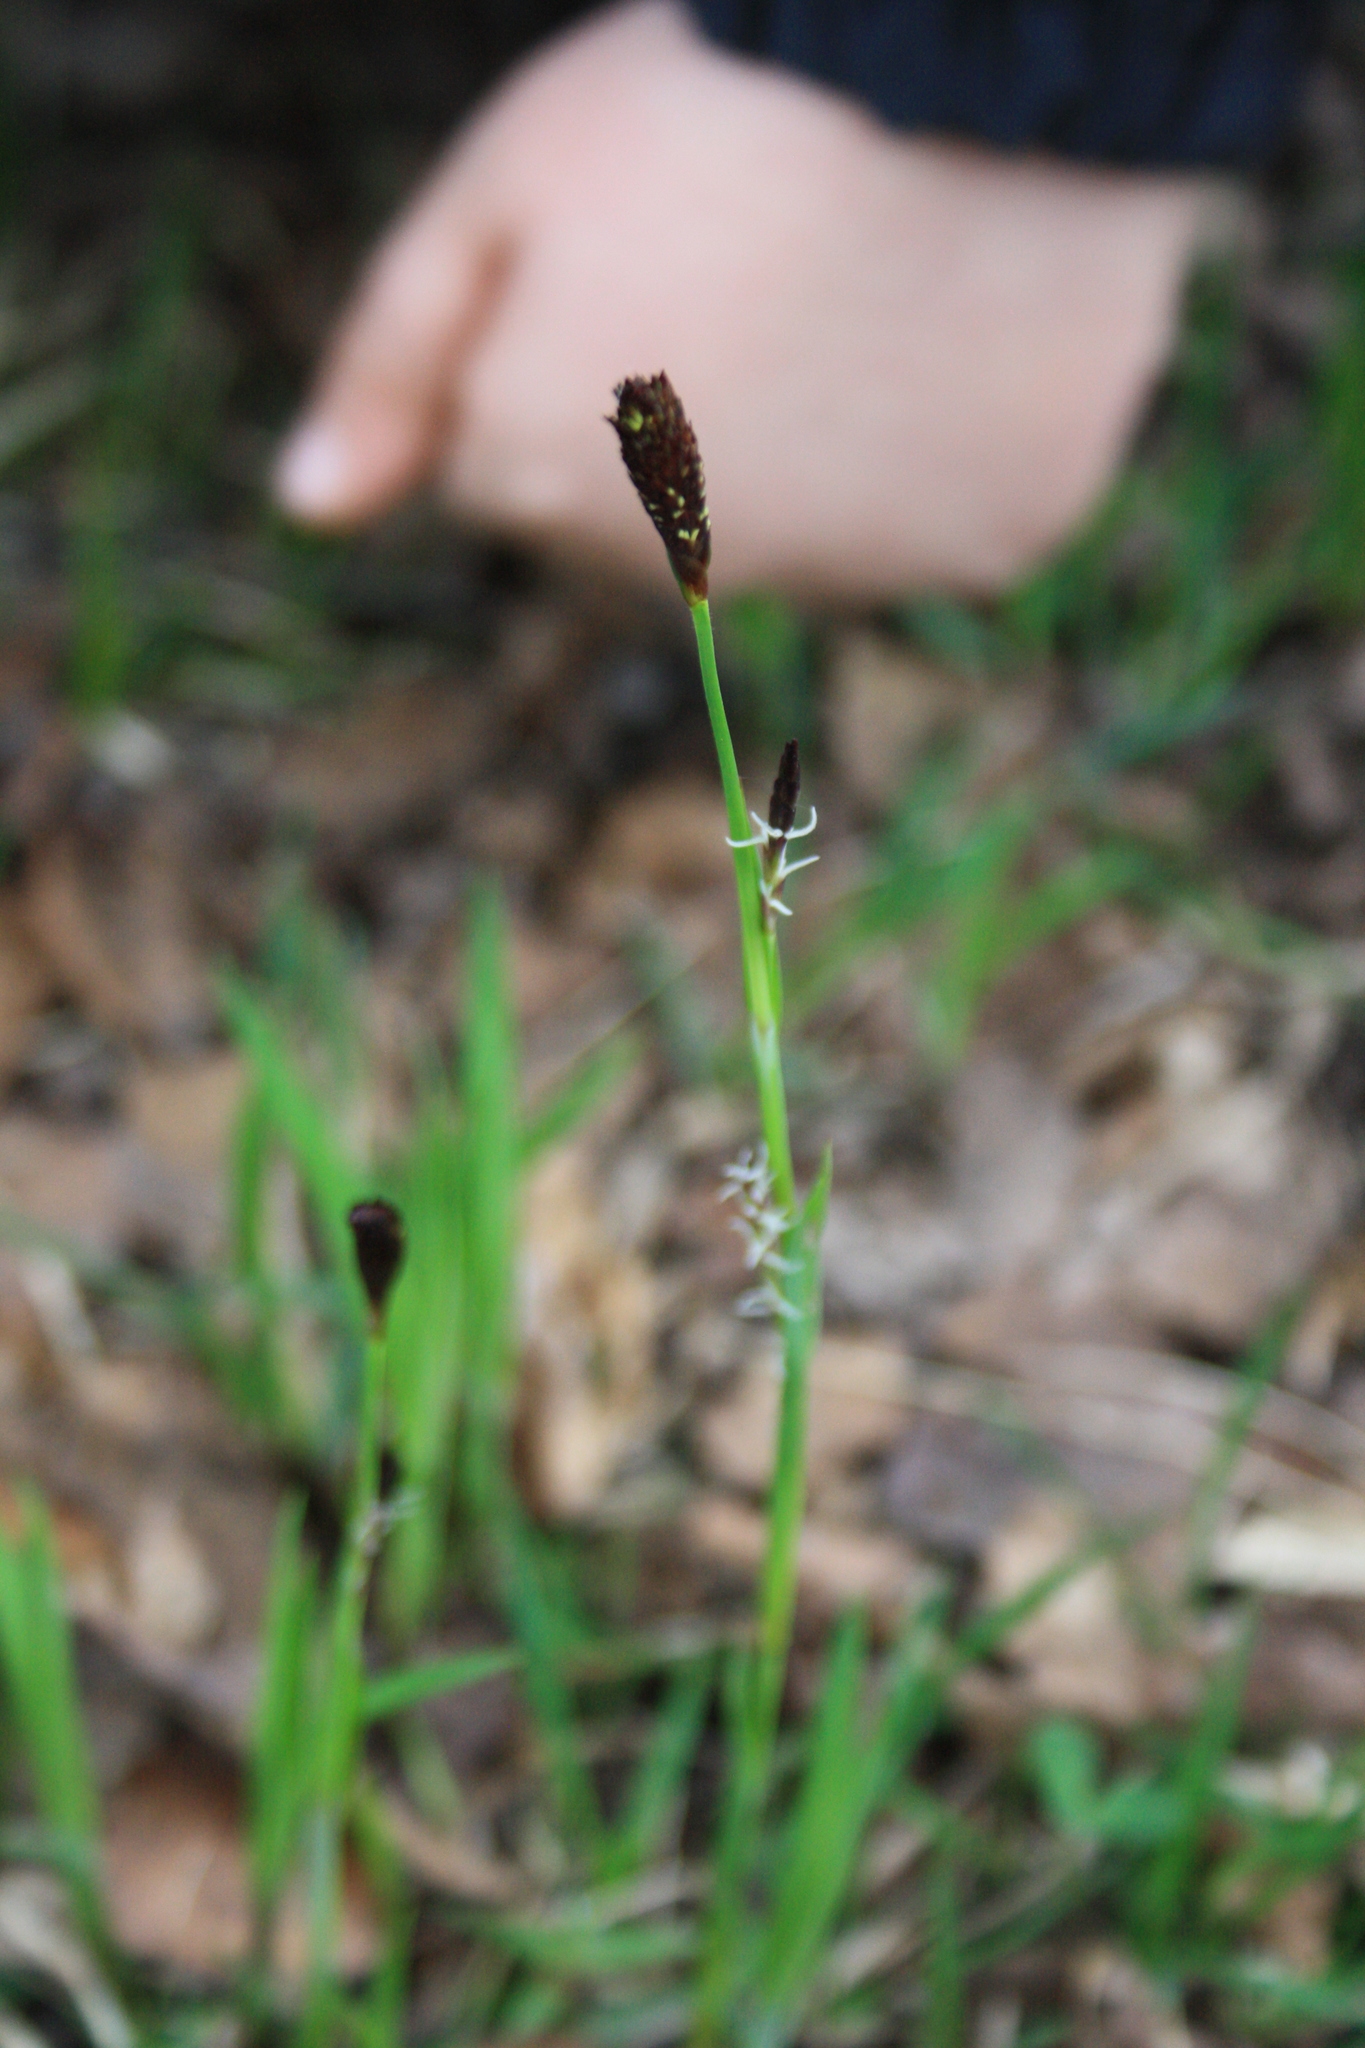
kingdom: Plantae
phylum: Tracheophyta
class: Liliopsida
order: Poales
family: Cyperaceae
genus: Carex
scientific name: Carex pilosa
